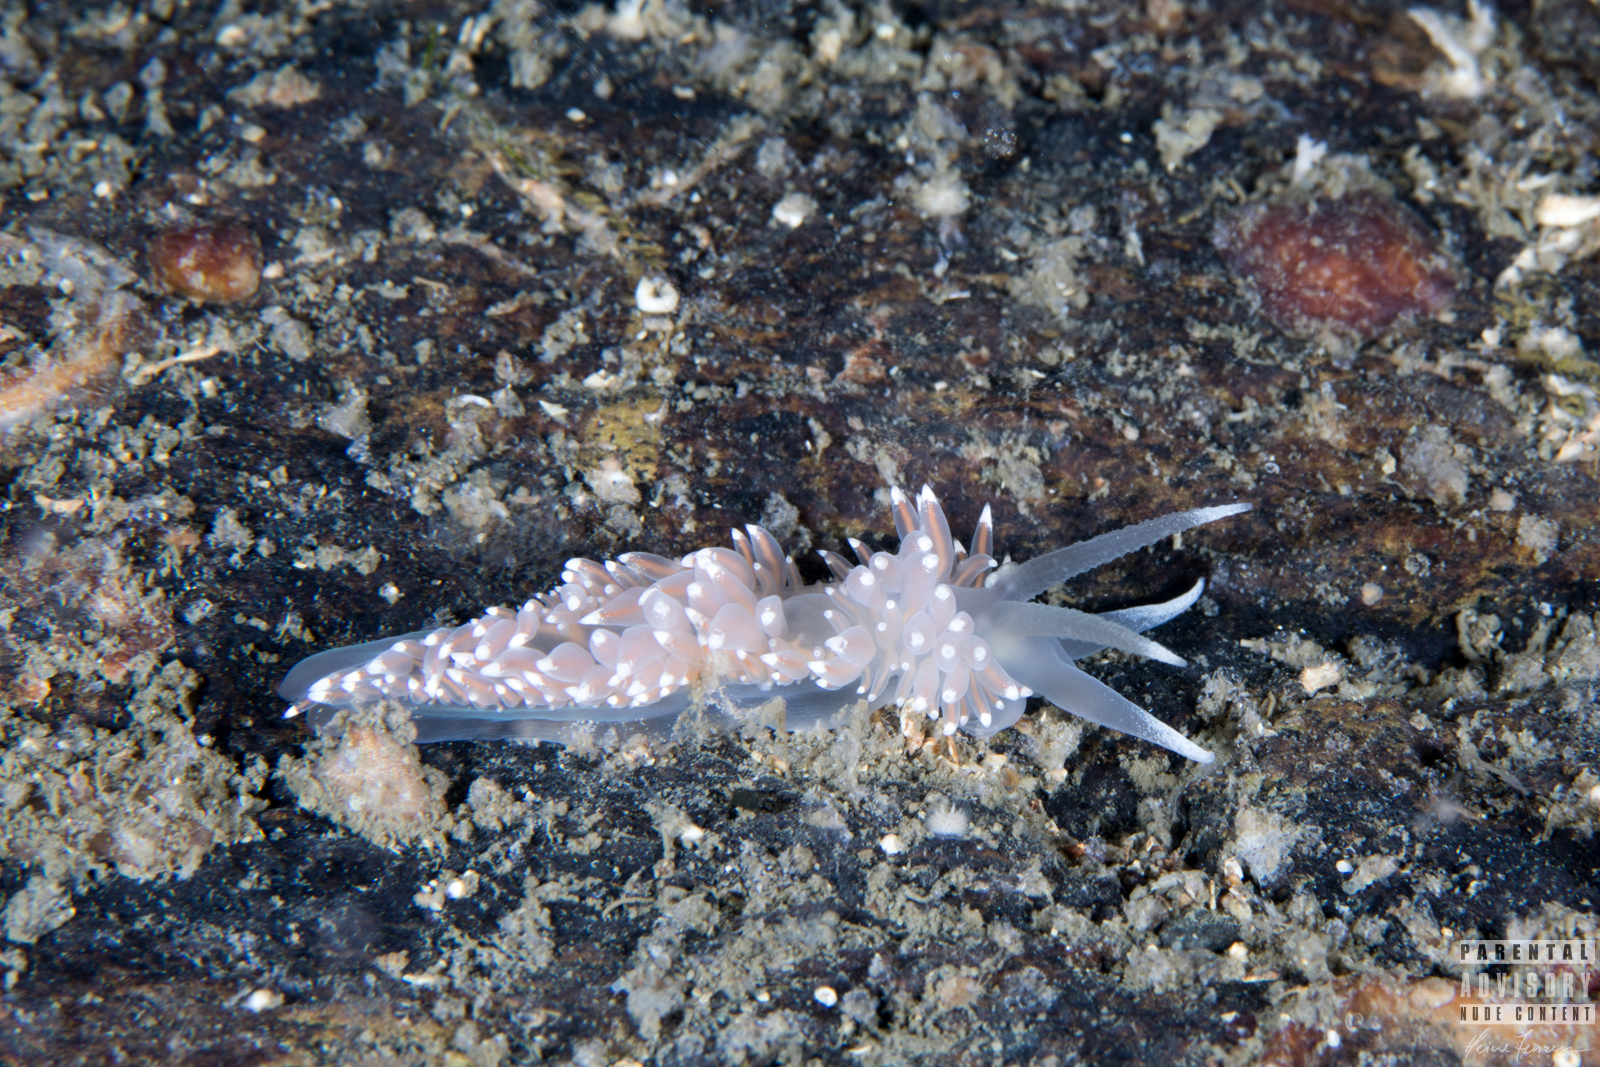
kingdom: Animalia
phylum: Mollusca
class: Gastropoda
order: Nudibranchia
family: Coryphellidae
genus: Coryphella
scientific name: Coryphella nobilis
